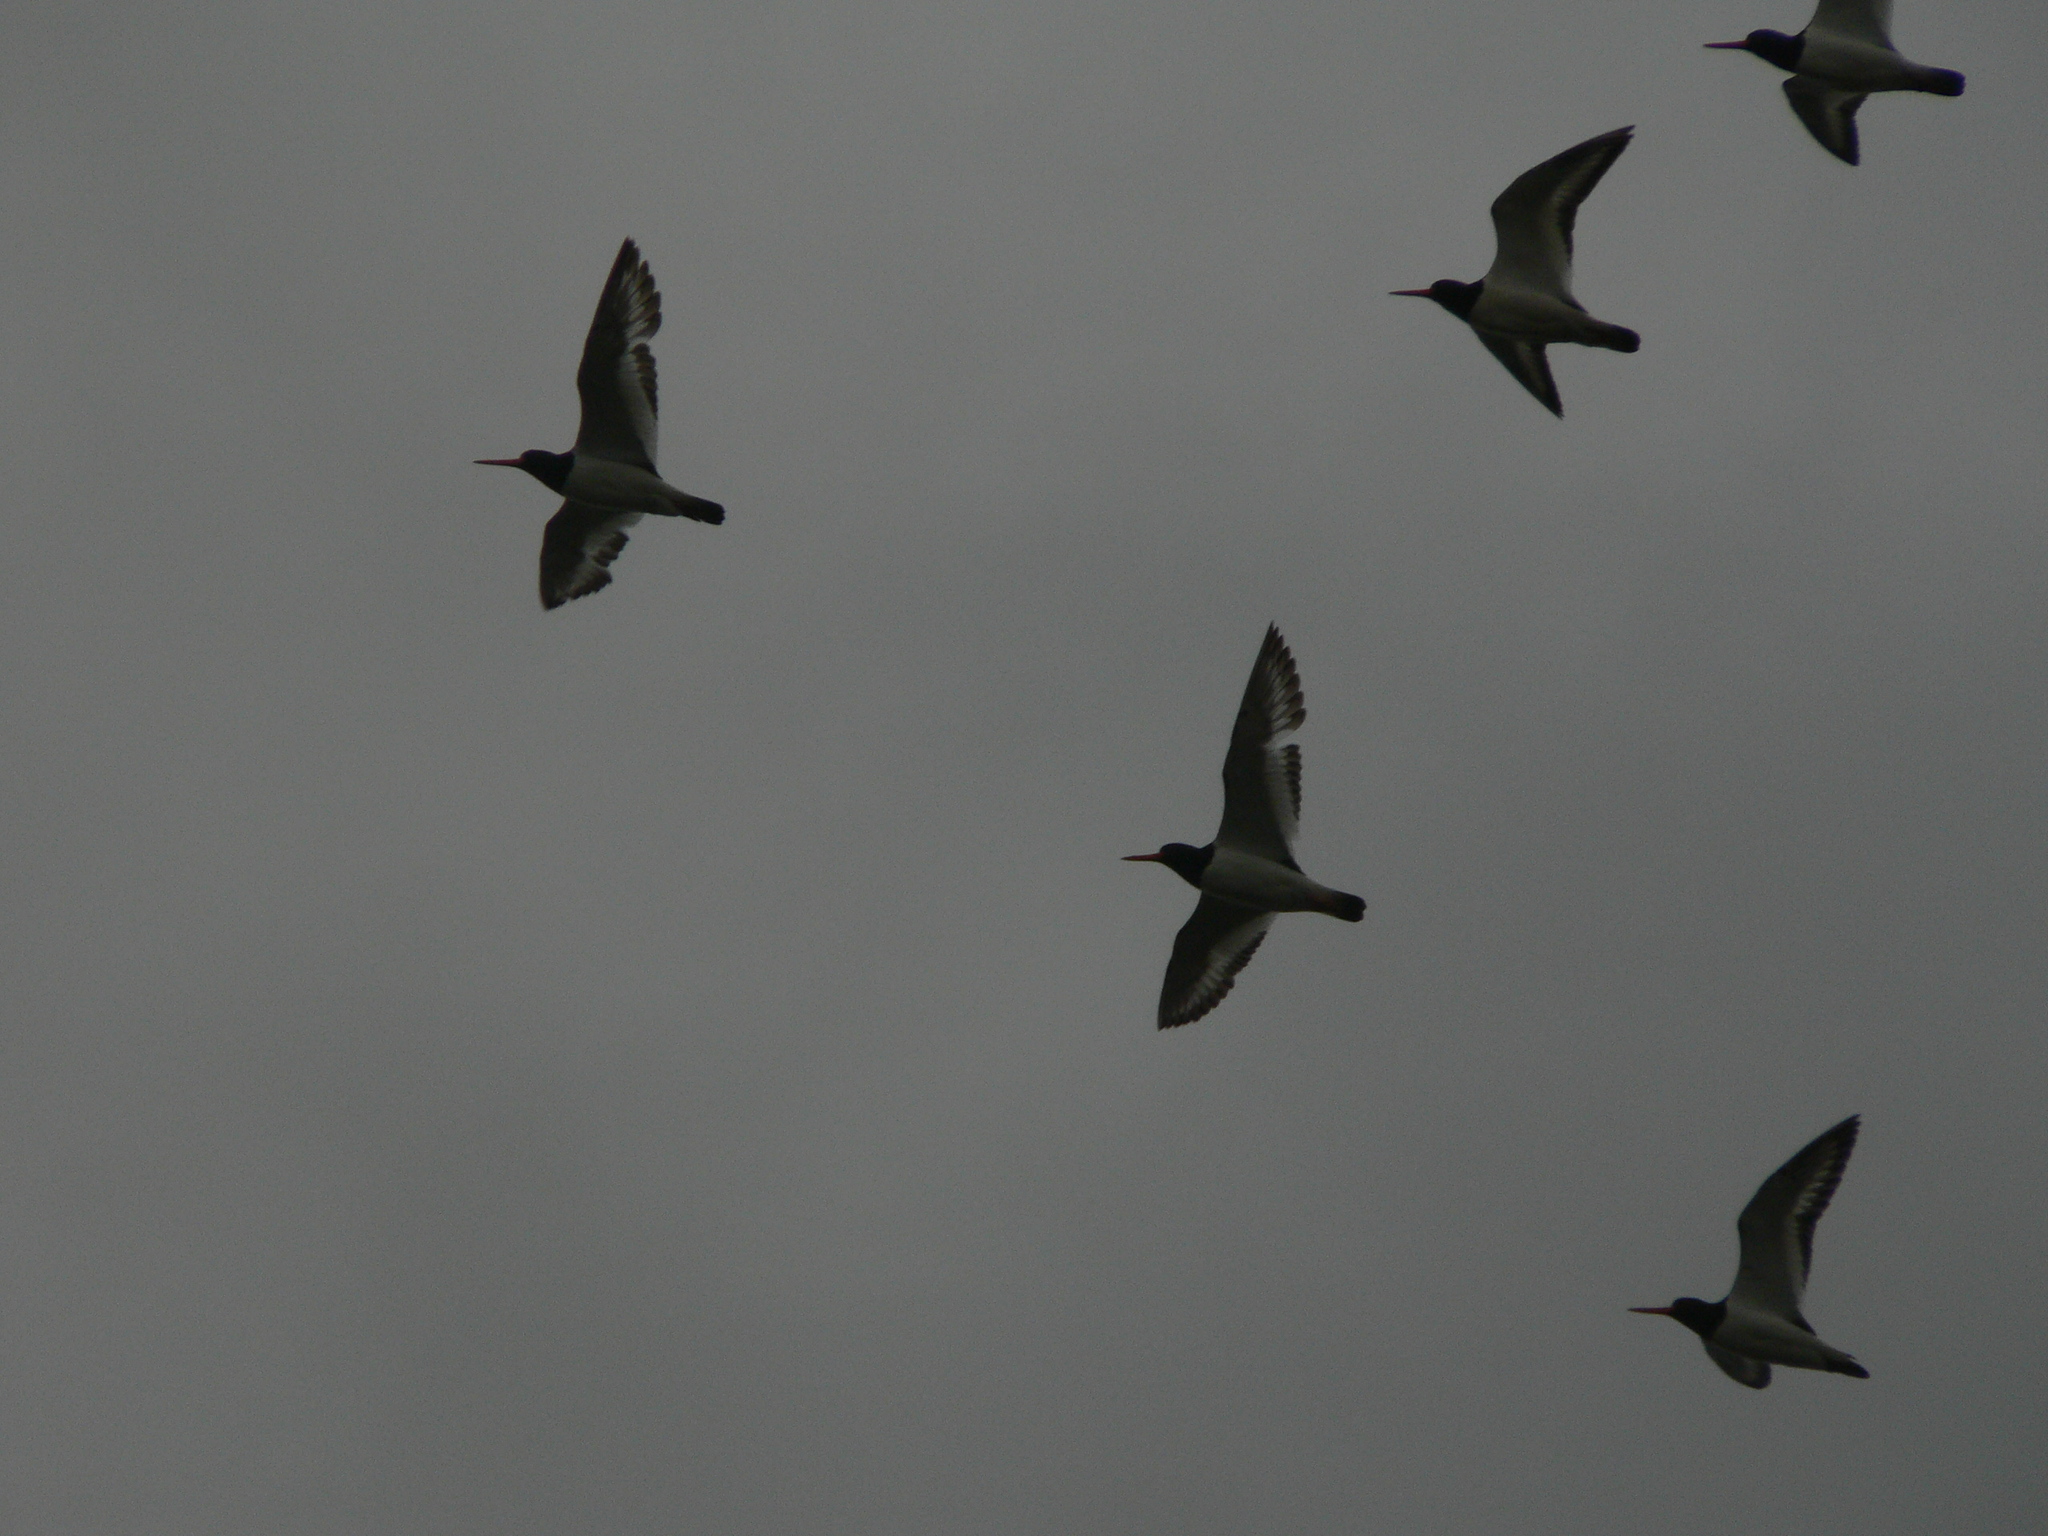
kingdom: Animalia
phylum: Chordata
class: Aves
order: Charadriiformes
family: Haematopodidae
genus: Haematopus
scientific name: Haematopus ostralegus
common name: Eurasian oystercatcher
